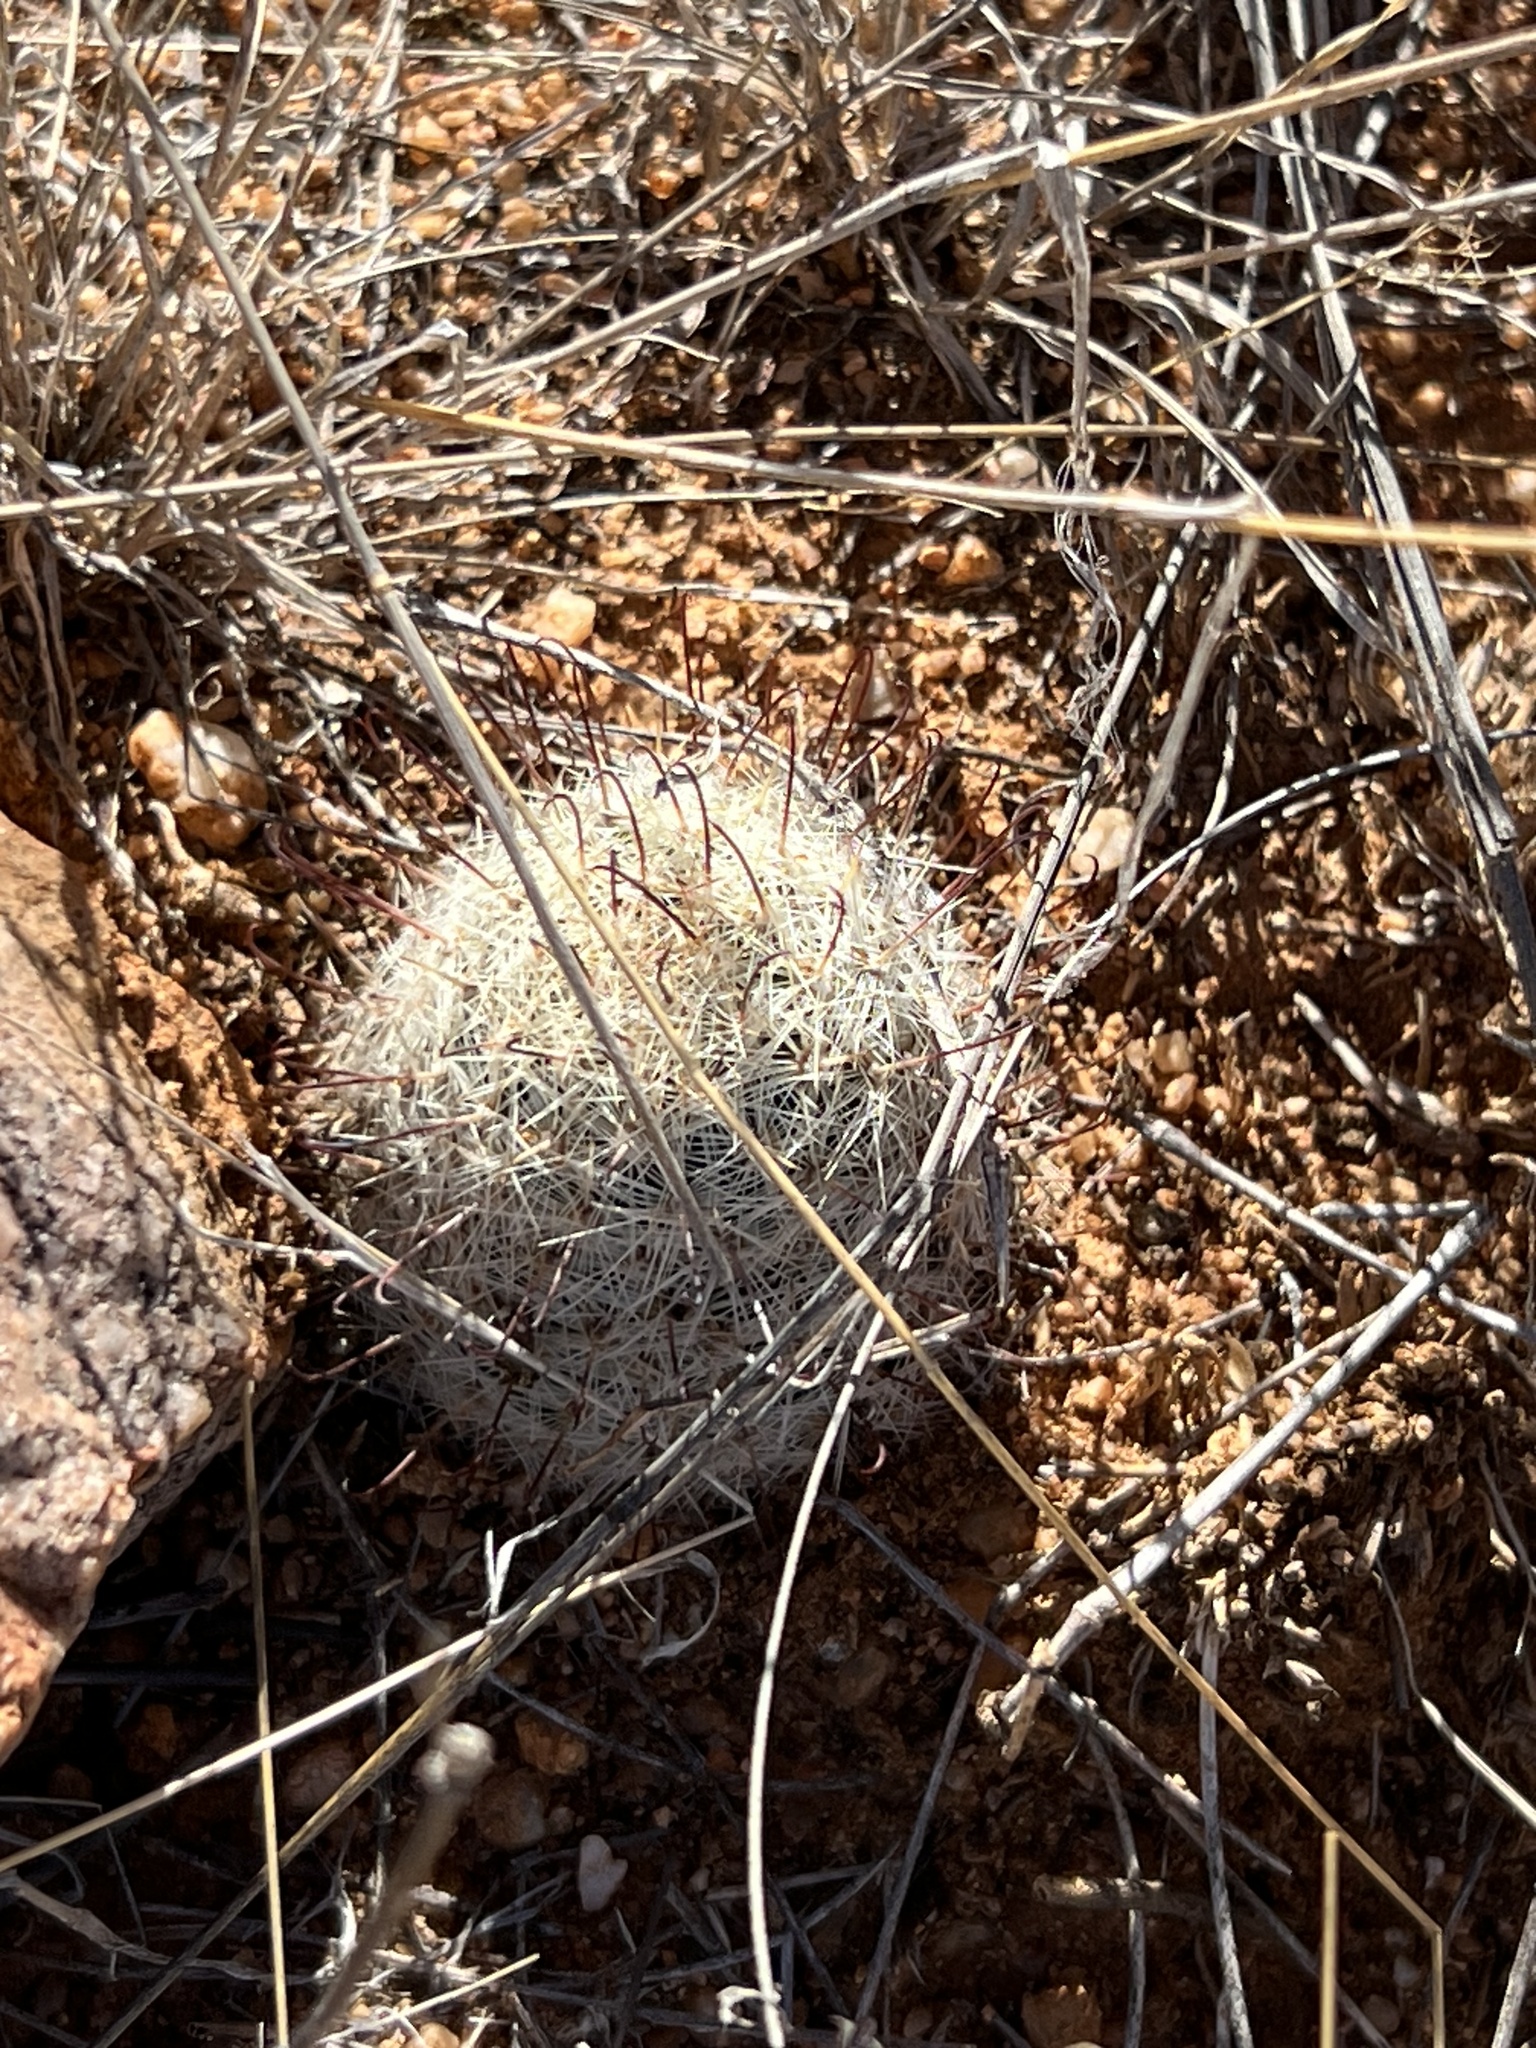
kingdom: Plantae
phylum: Tracheophyta
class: Magnoliopsida
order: Caryophyllales
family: Cactaceae
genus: Cochemiea
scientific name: Cochemiea grahamii
